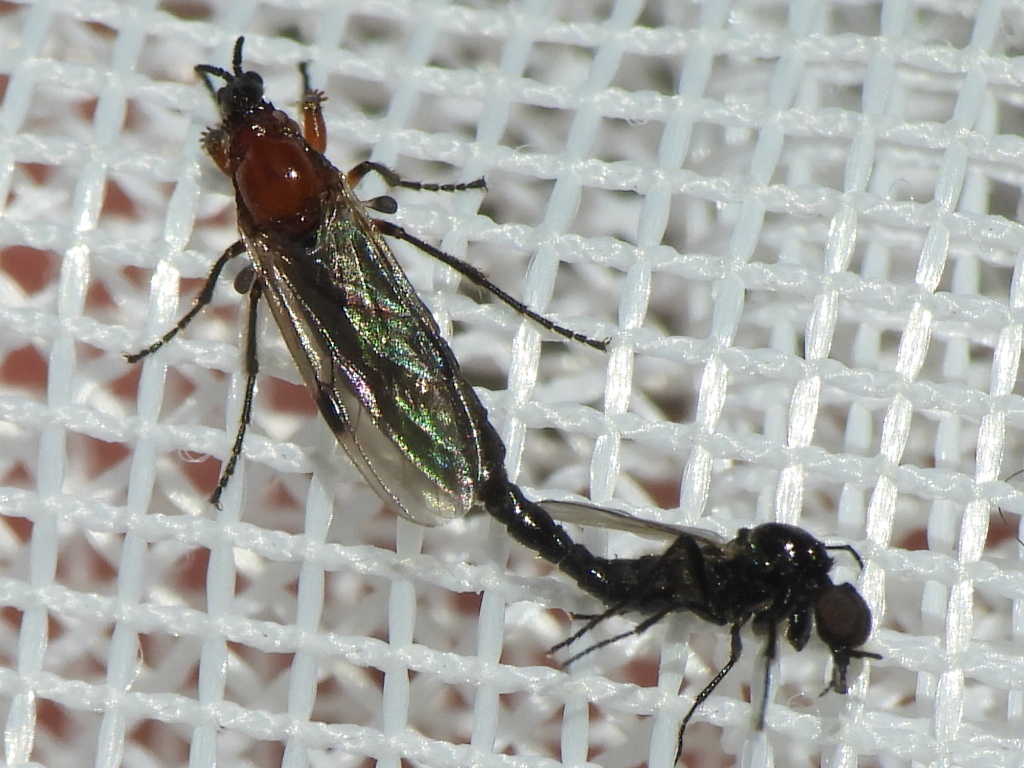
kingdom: Animalia
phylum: Arthropoda
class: Insecta
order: Diptera
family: Bibionidae
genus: Dilophus
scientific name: Dilophus tibialis
